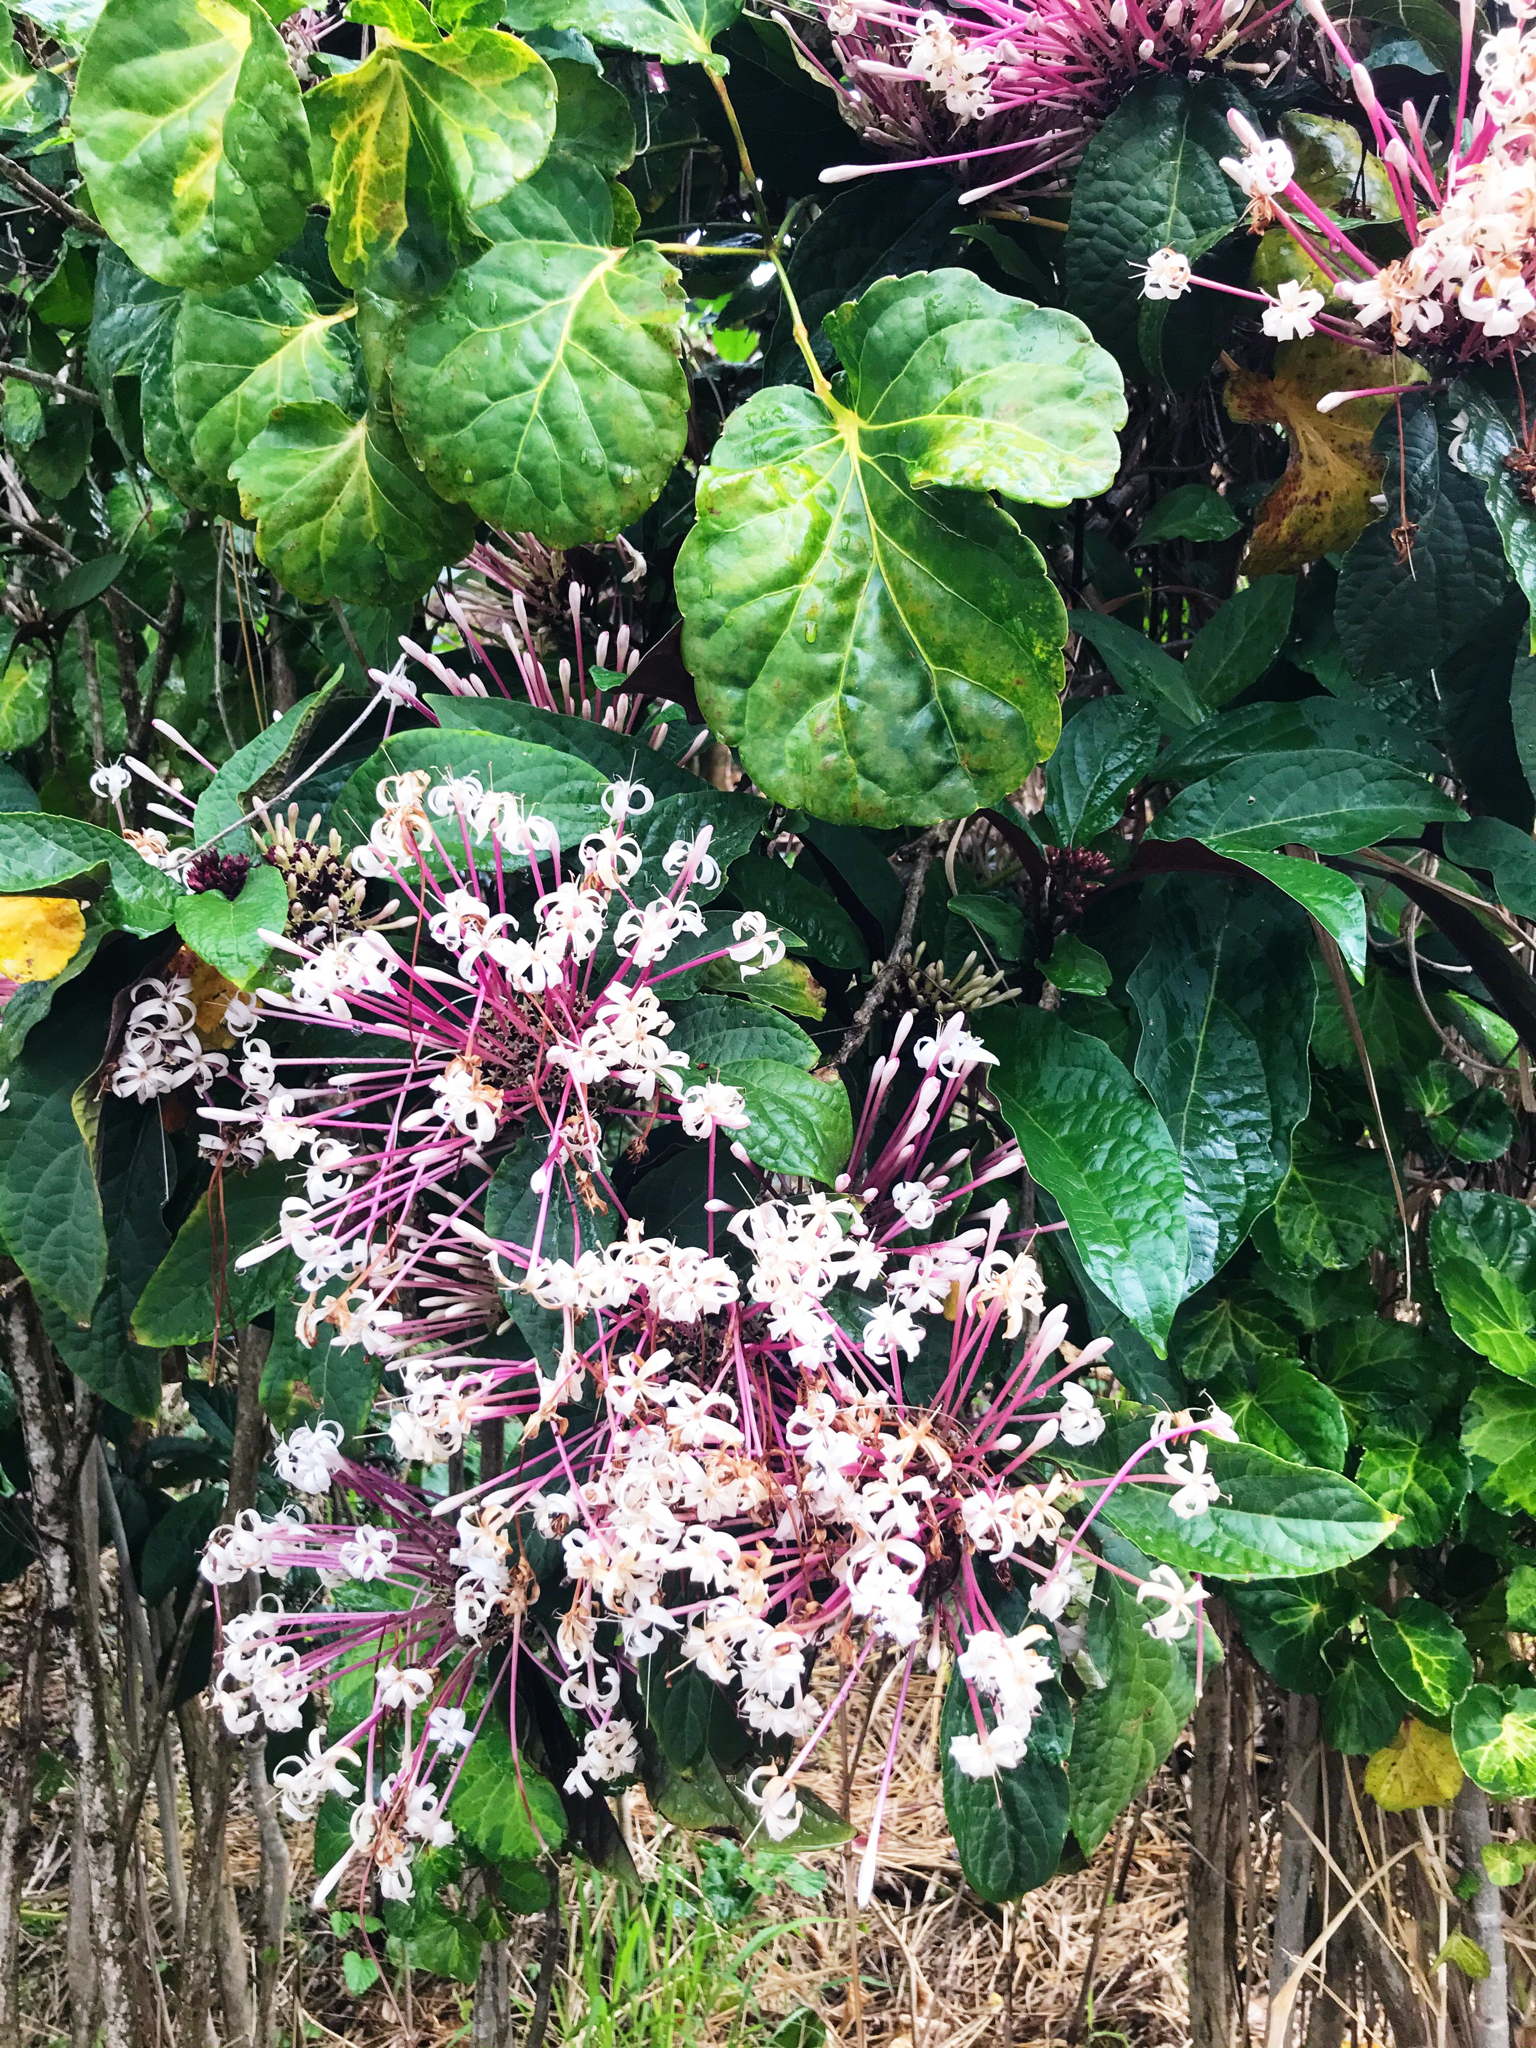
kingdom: Plantae
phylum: Tracheophyta
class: Magnoliopsida
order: Lamiales
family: Lamiaceae
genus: Clerodendrum
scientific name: Clerodendrum quadriloculare
